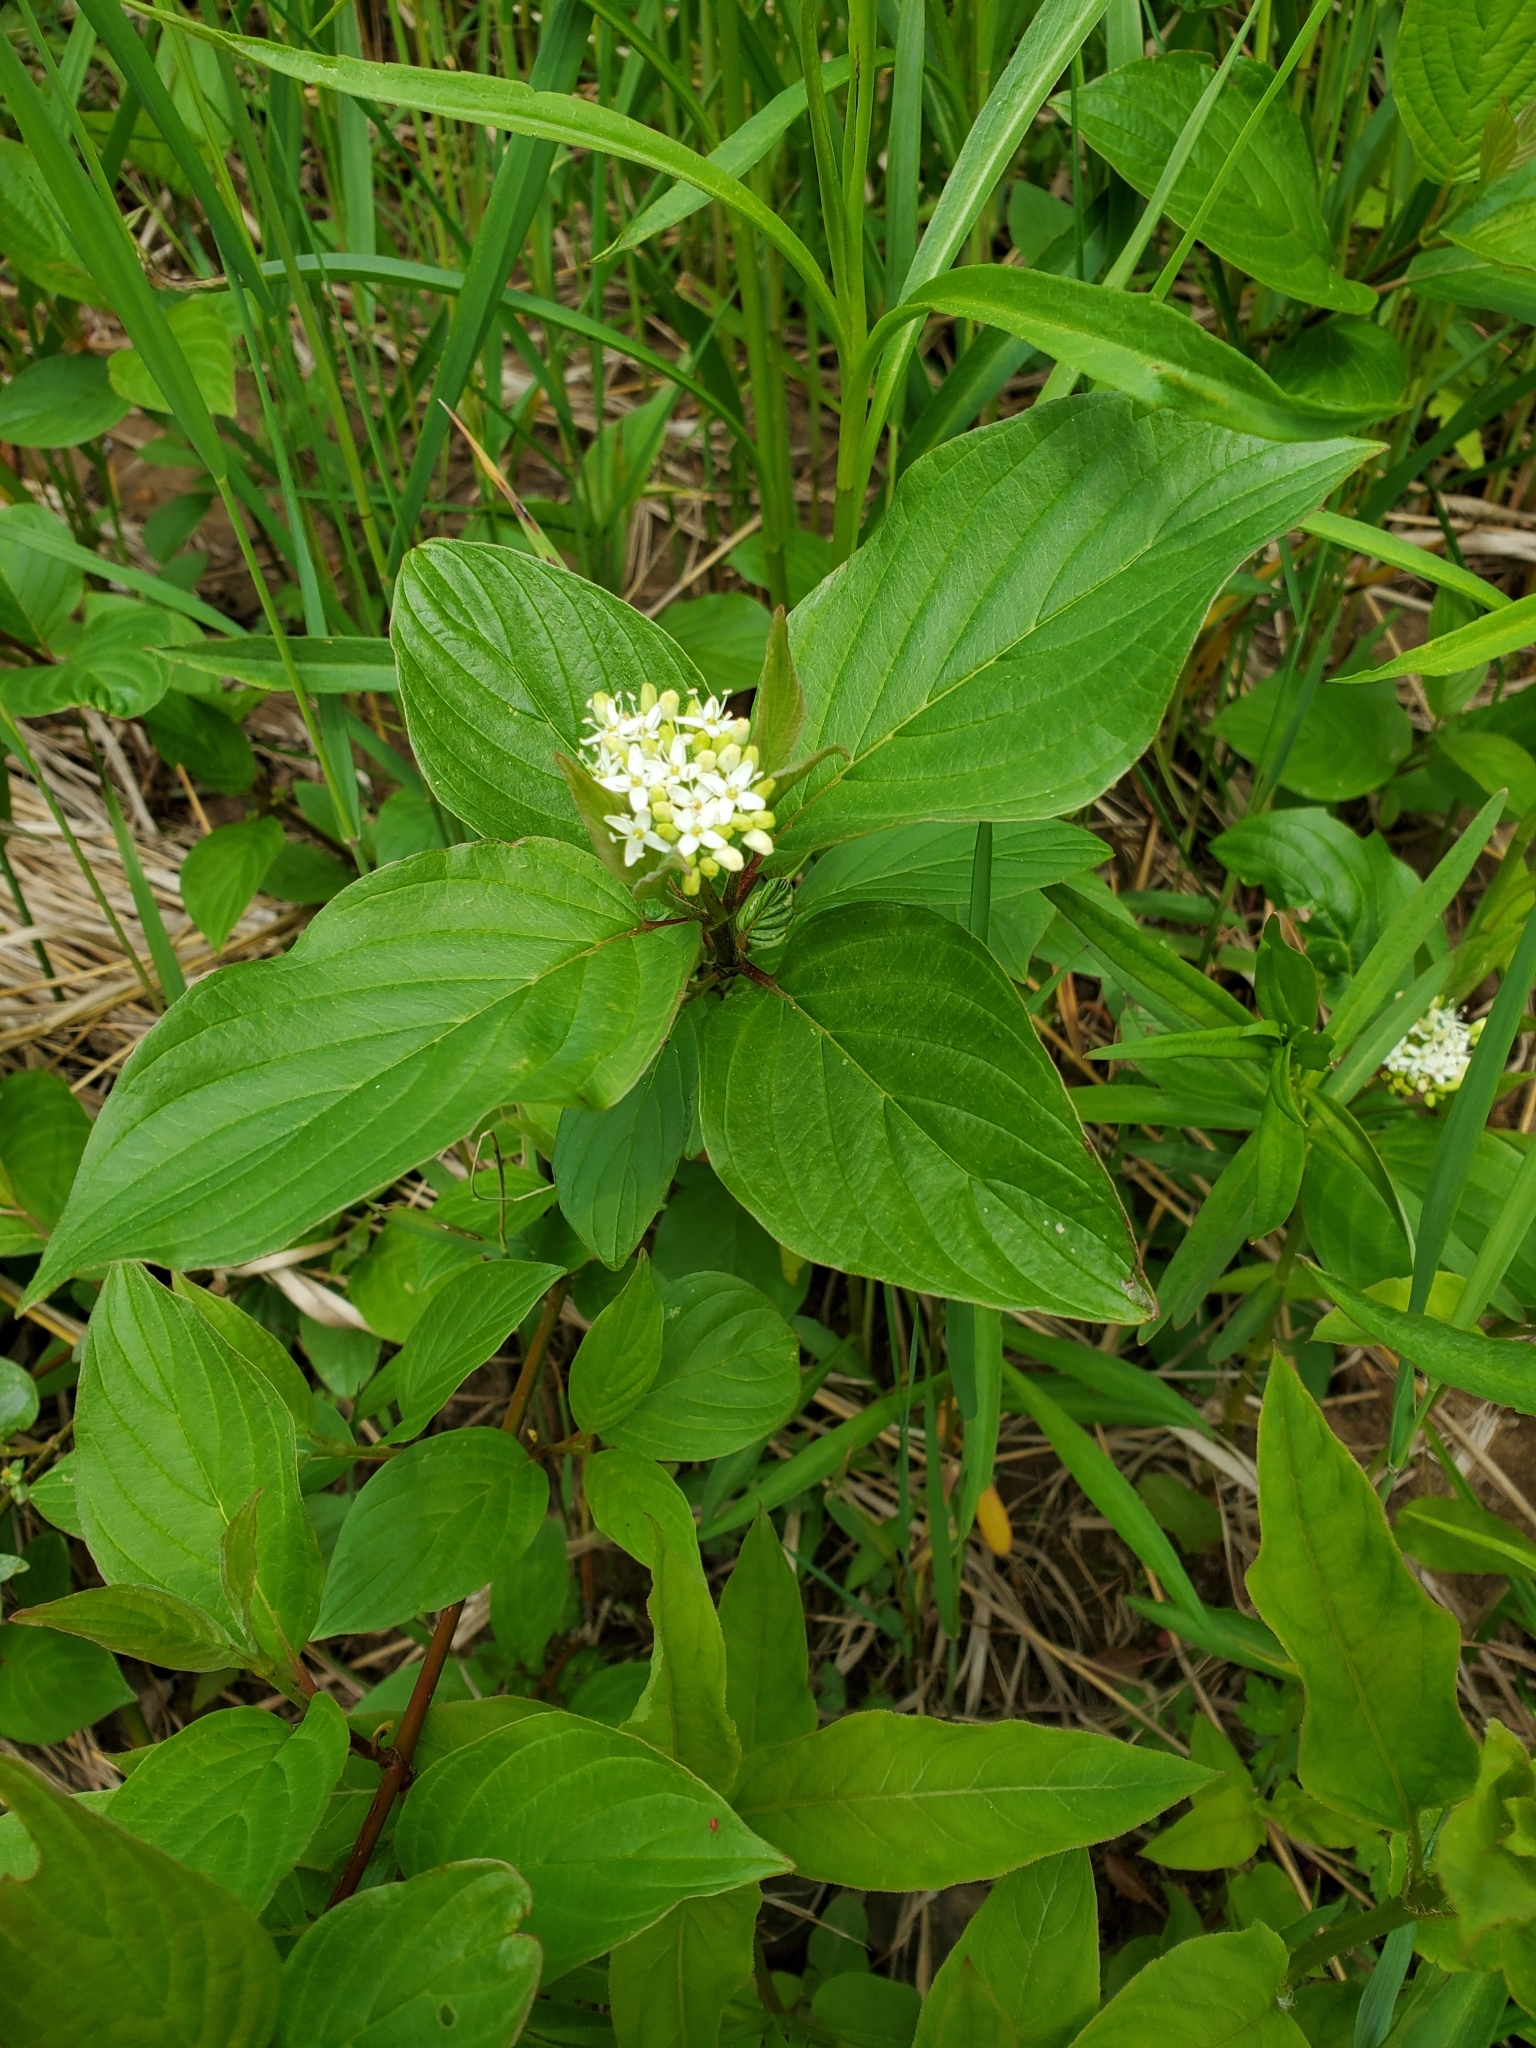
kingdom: Plantae
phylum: Tracheophyta
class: Magnoliopsida
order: Cornales
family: Cornaceae
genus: Cornus
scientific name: Cornus sericea
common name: Red-osier dogwood
